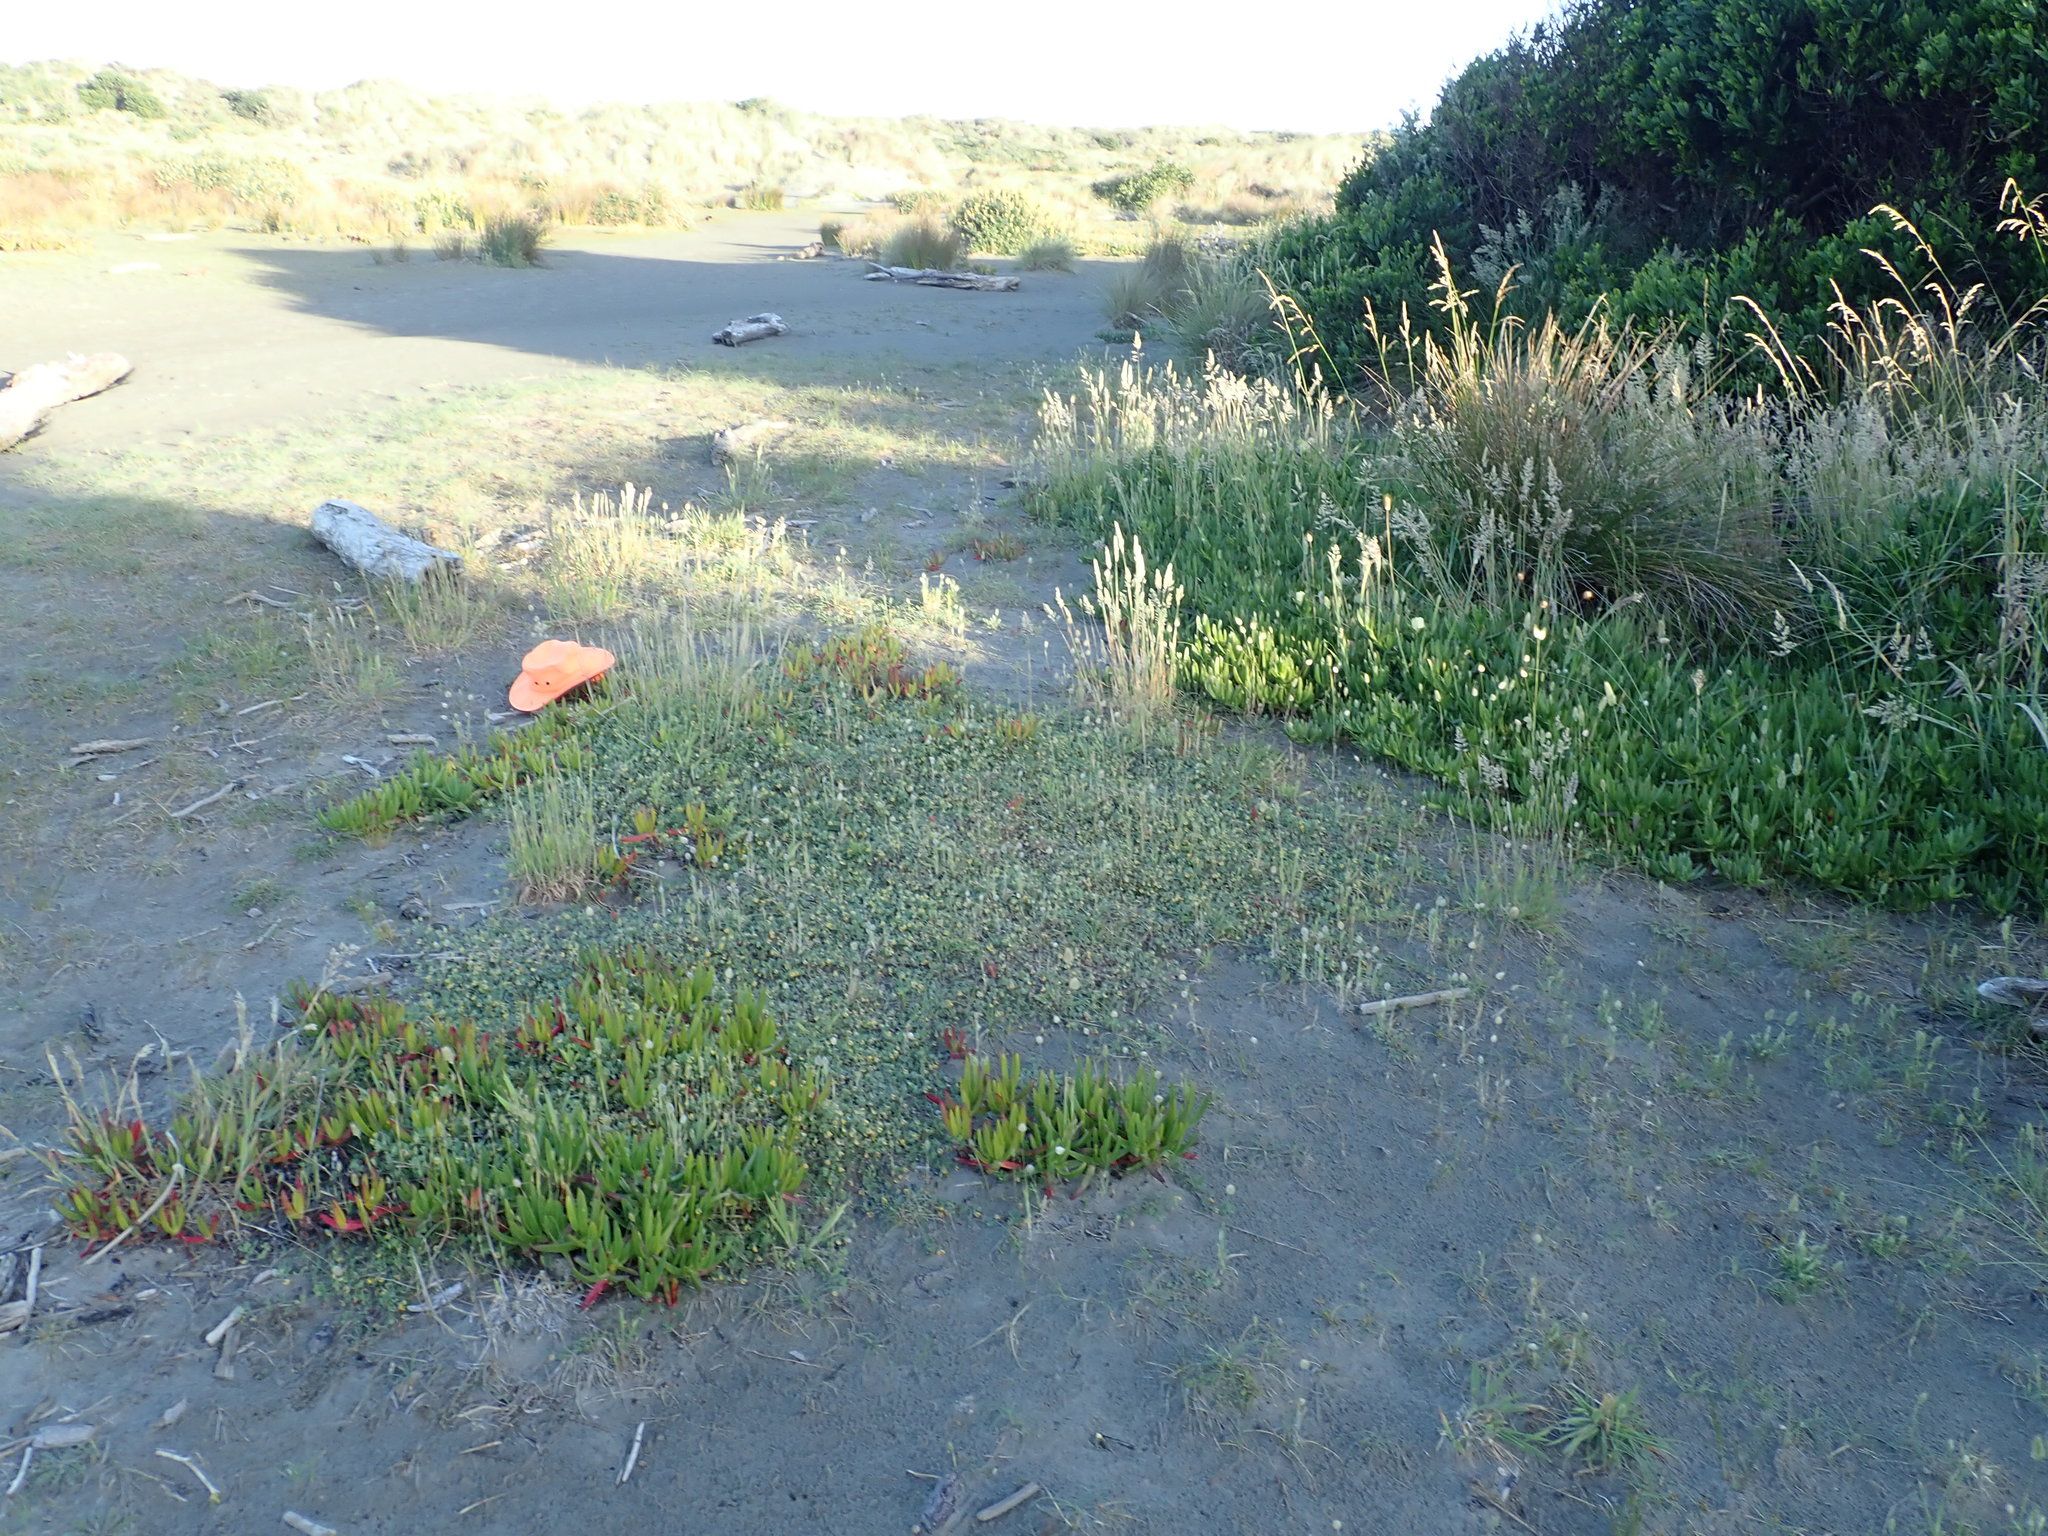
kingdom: Plantae
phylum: Tracheophyta
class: Magnoliopsida
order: Fabales
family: Fabaceae
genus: Lotus
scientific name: Lotus subbiflorus
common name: Hairy bird's-foot trefoil
